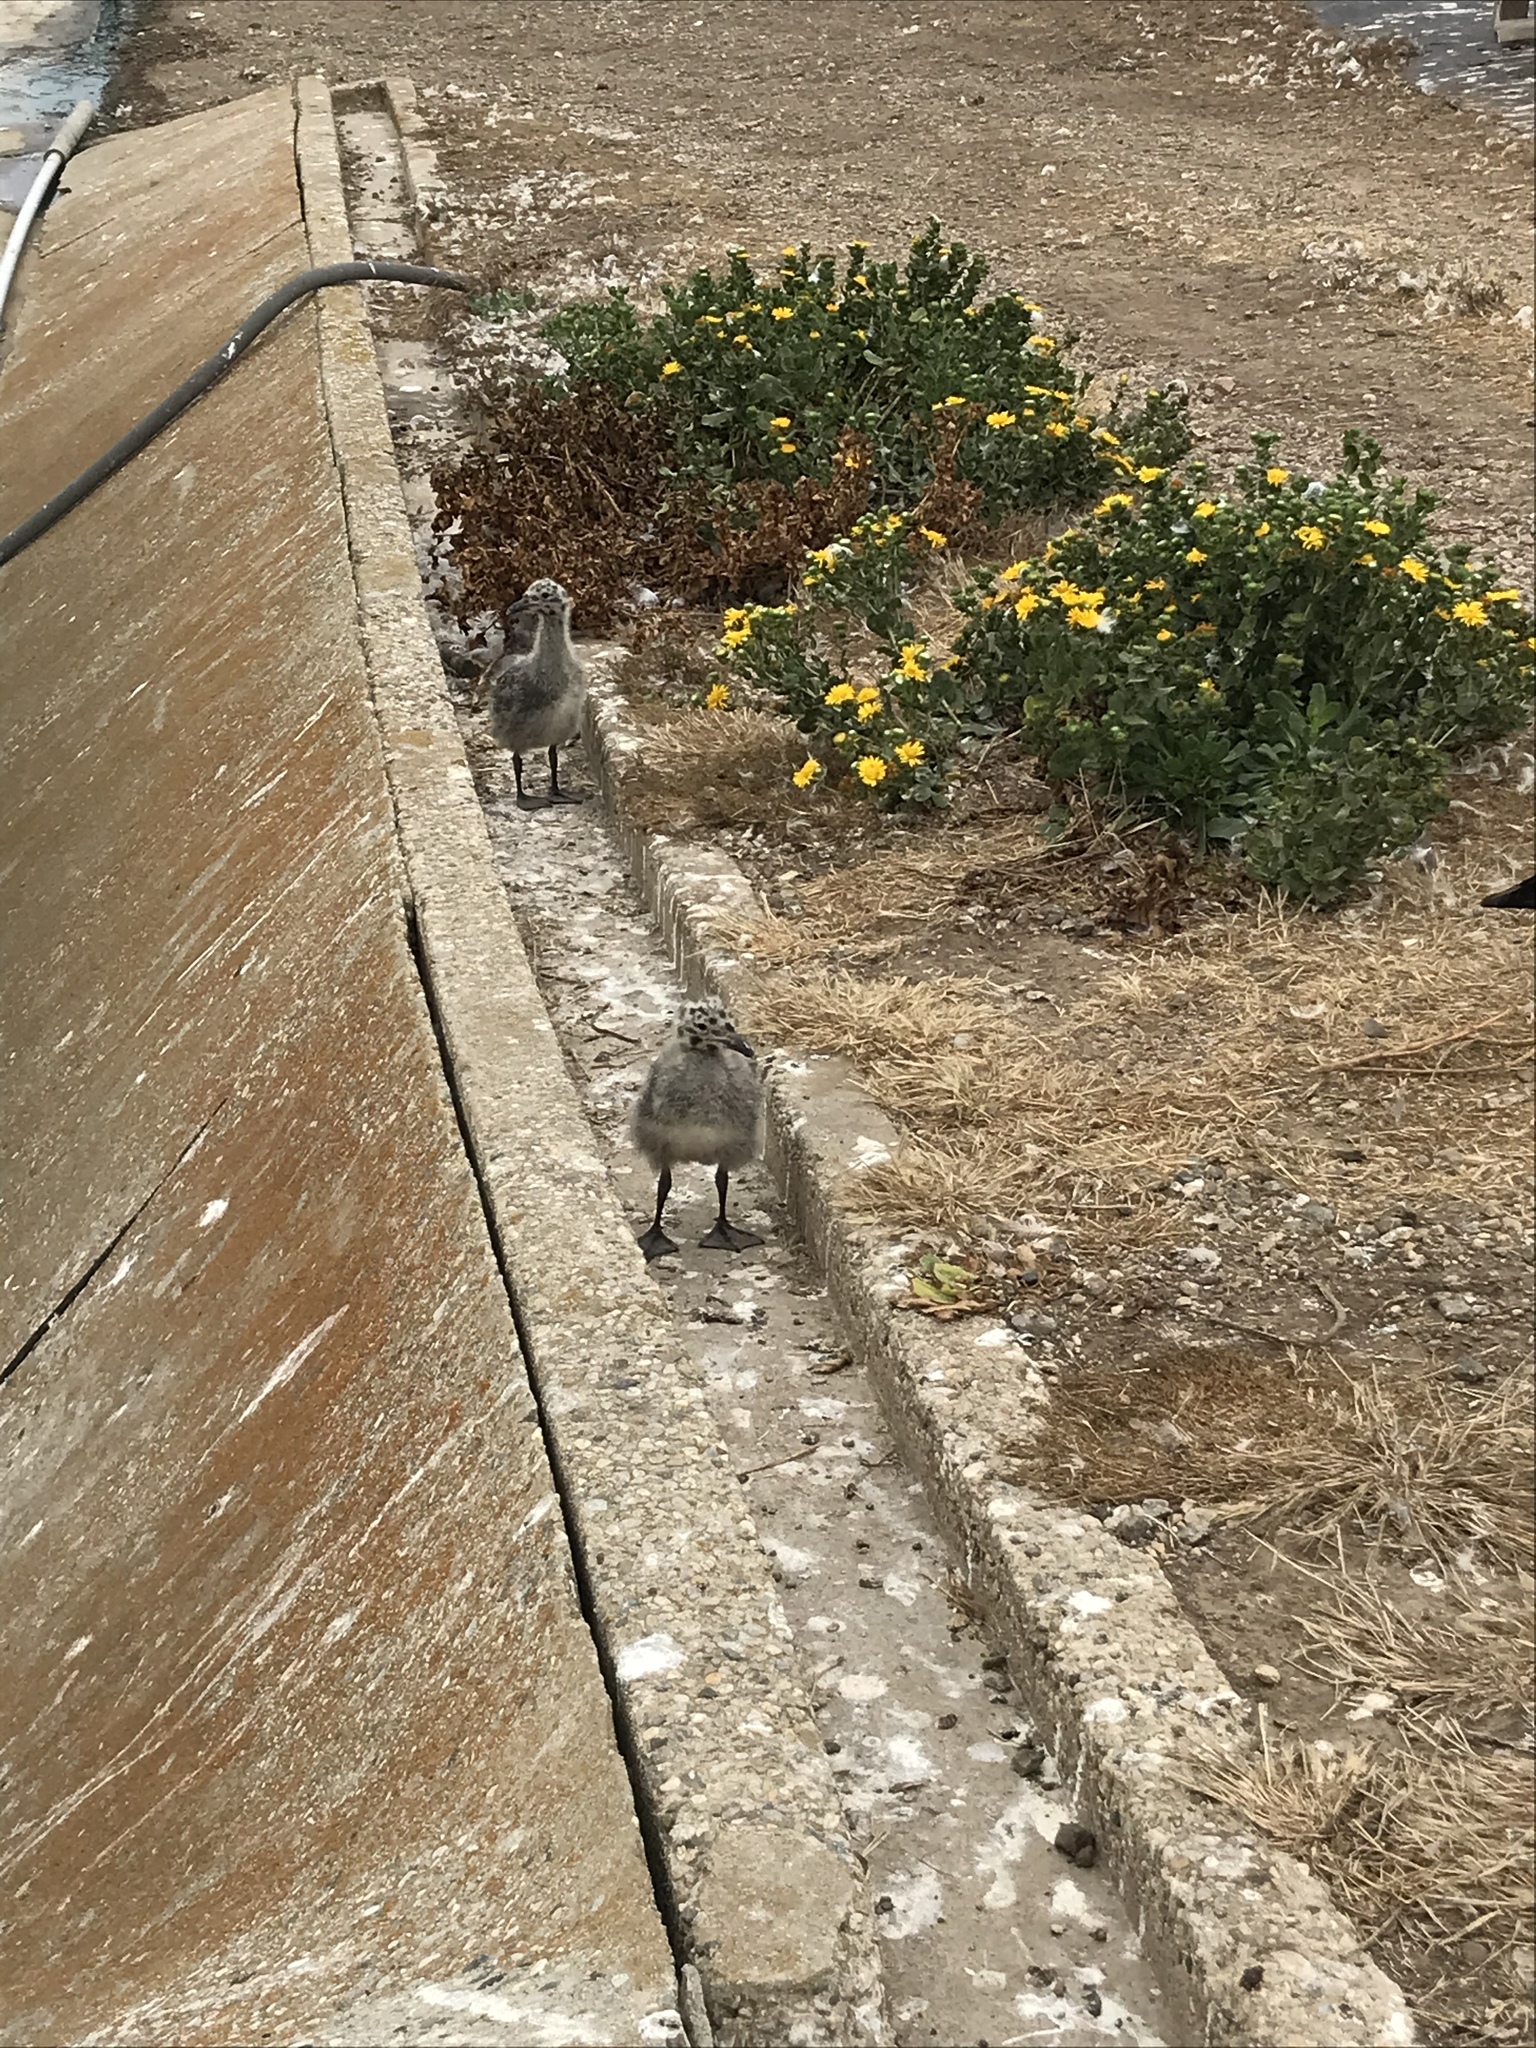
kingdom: Animalia
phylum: Chordata
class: Aves
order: Charadriiformes
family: Laridae
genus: Larus
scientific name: Larus occidentalis
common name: Western gull
